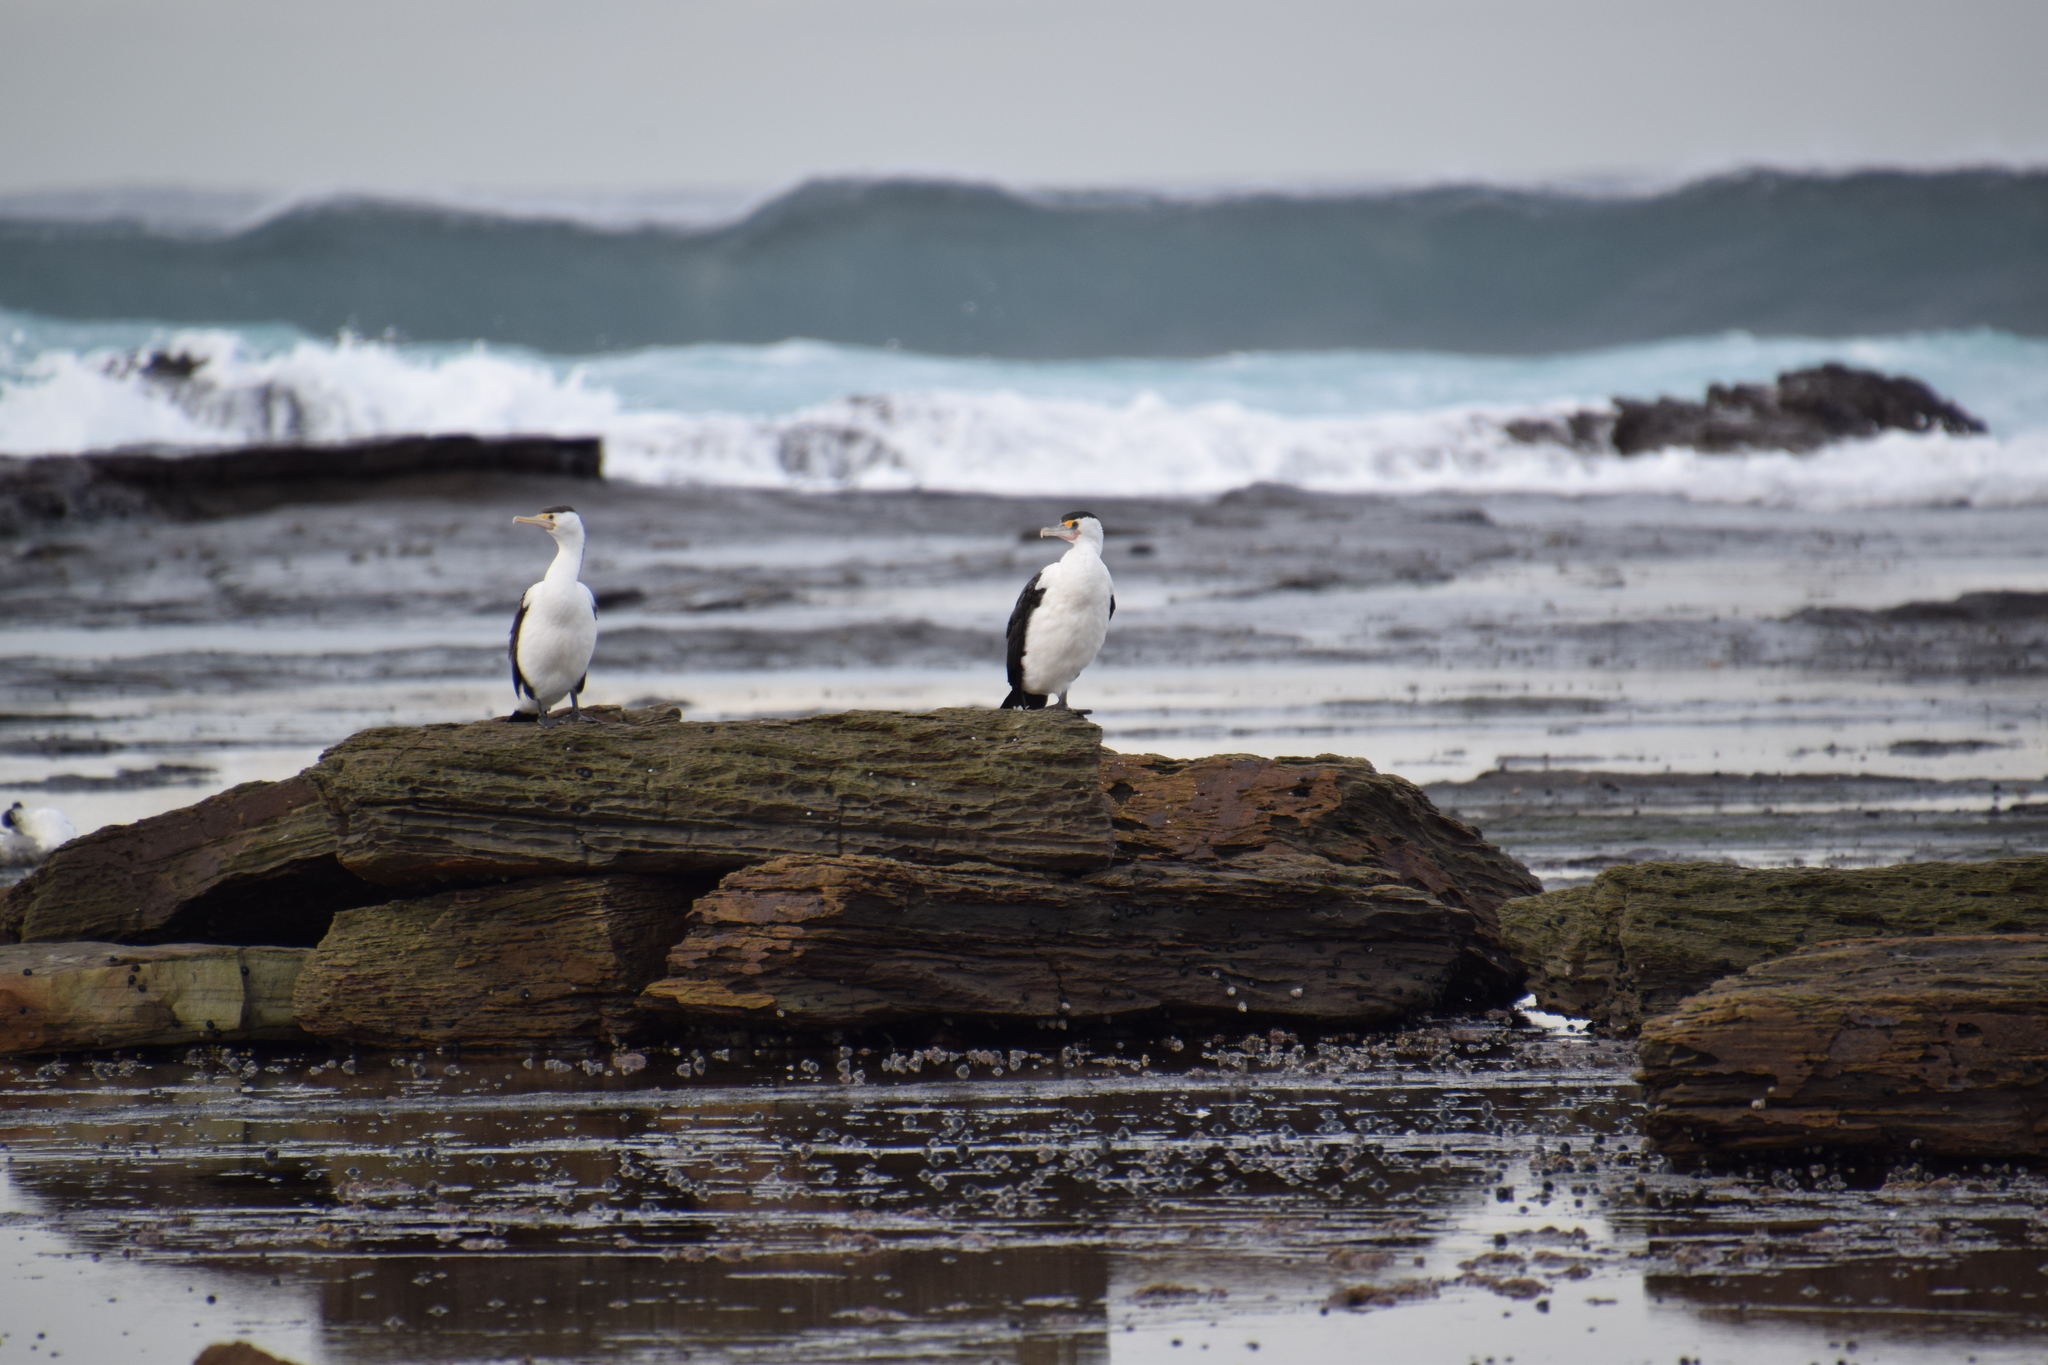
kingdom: Animalia
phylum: Chordata
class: Aves
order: Suliformes
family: Phalacrocoracidae
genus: Phalacrocorax
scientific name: Phalacrocorax varius
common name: Pied cormorant
